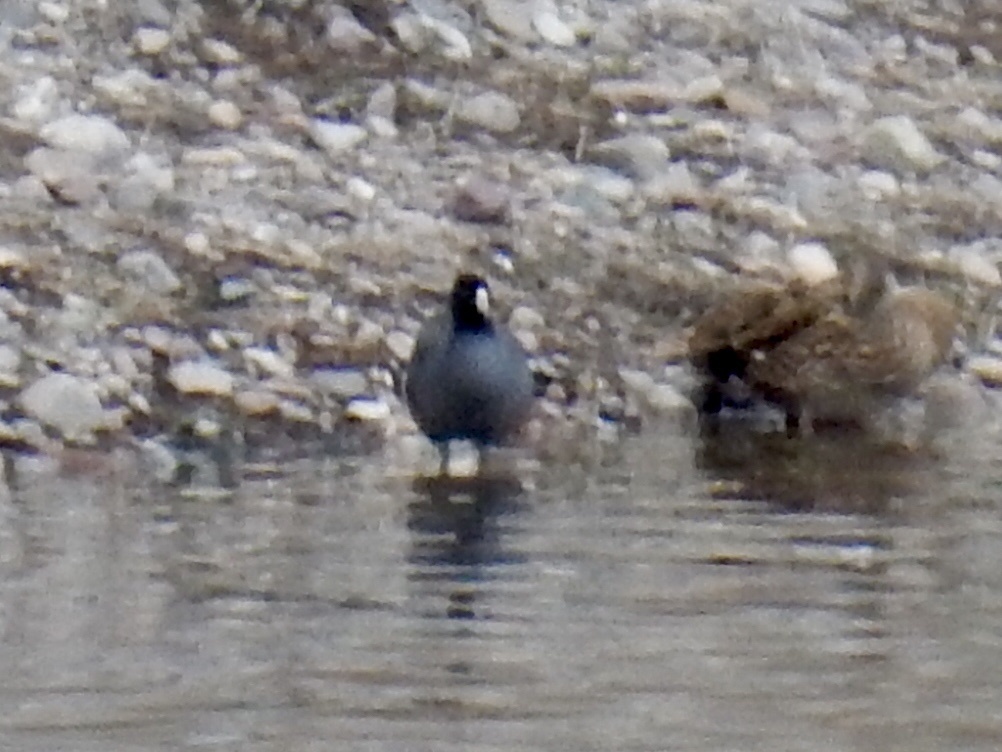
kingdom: Animalia
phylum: Chordata
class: Aves
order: Gruiformes
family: Rallidae
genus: Fulica
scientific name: Fulica americana
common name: American coot
